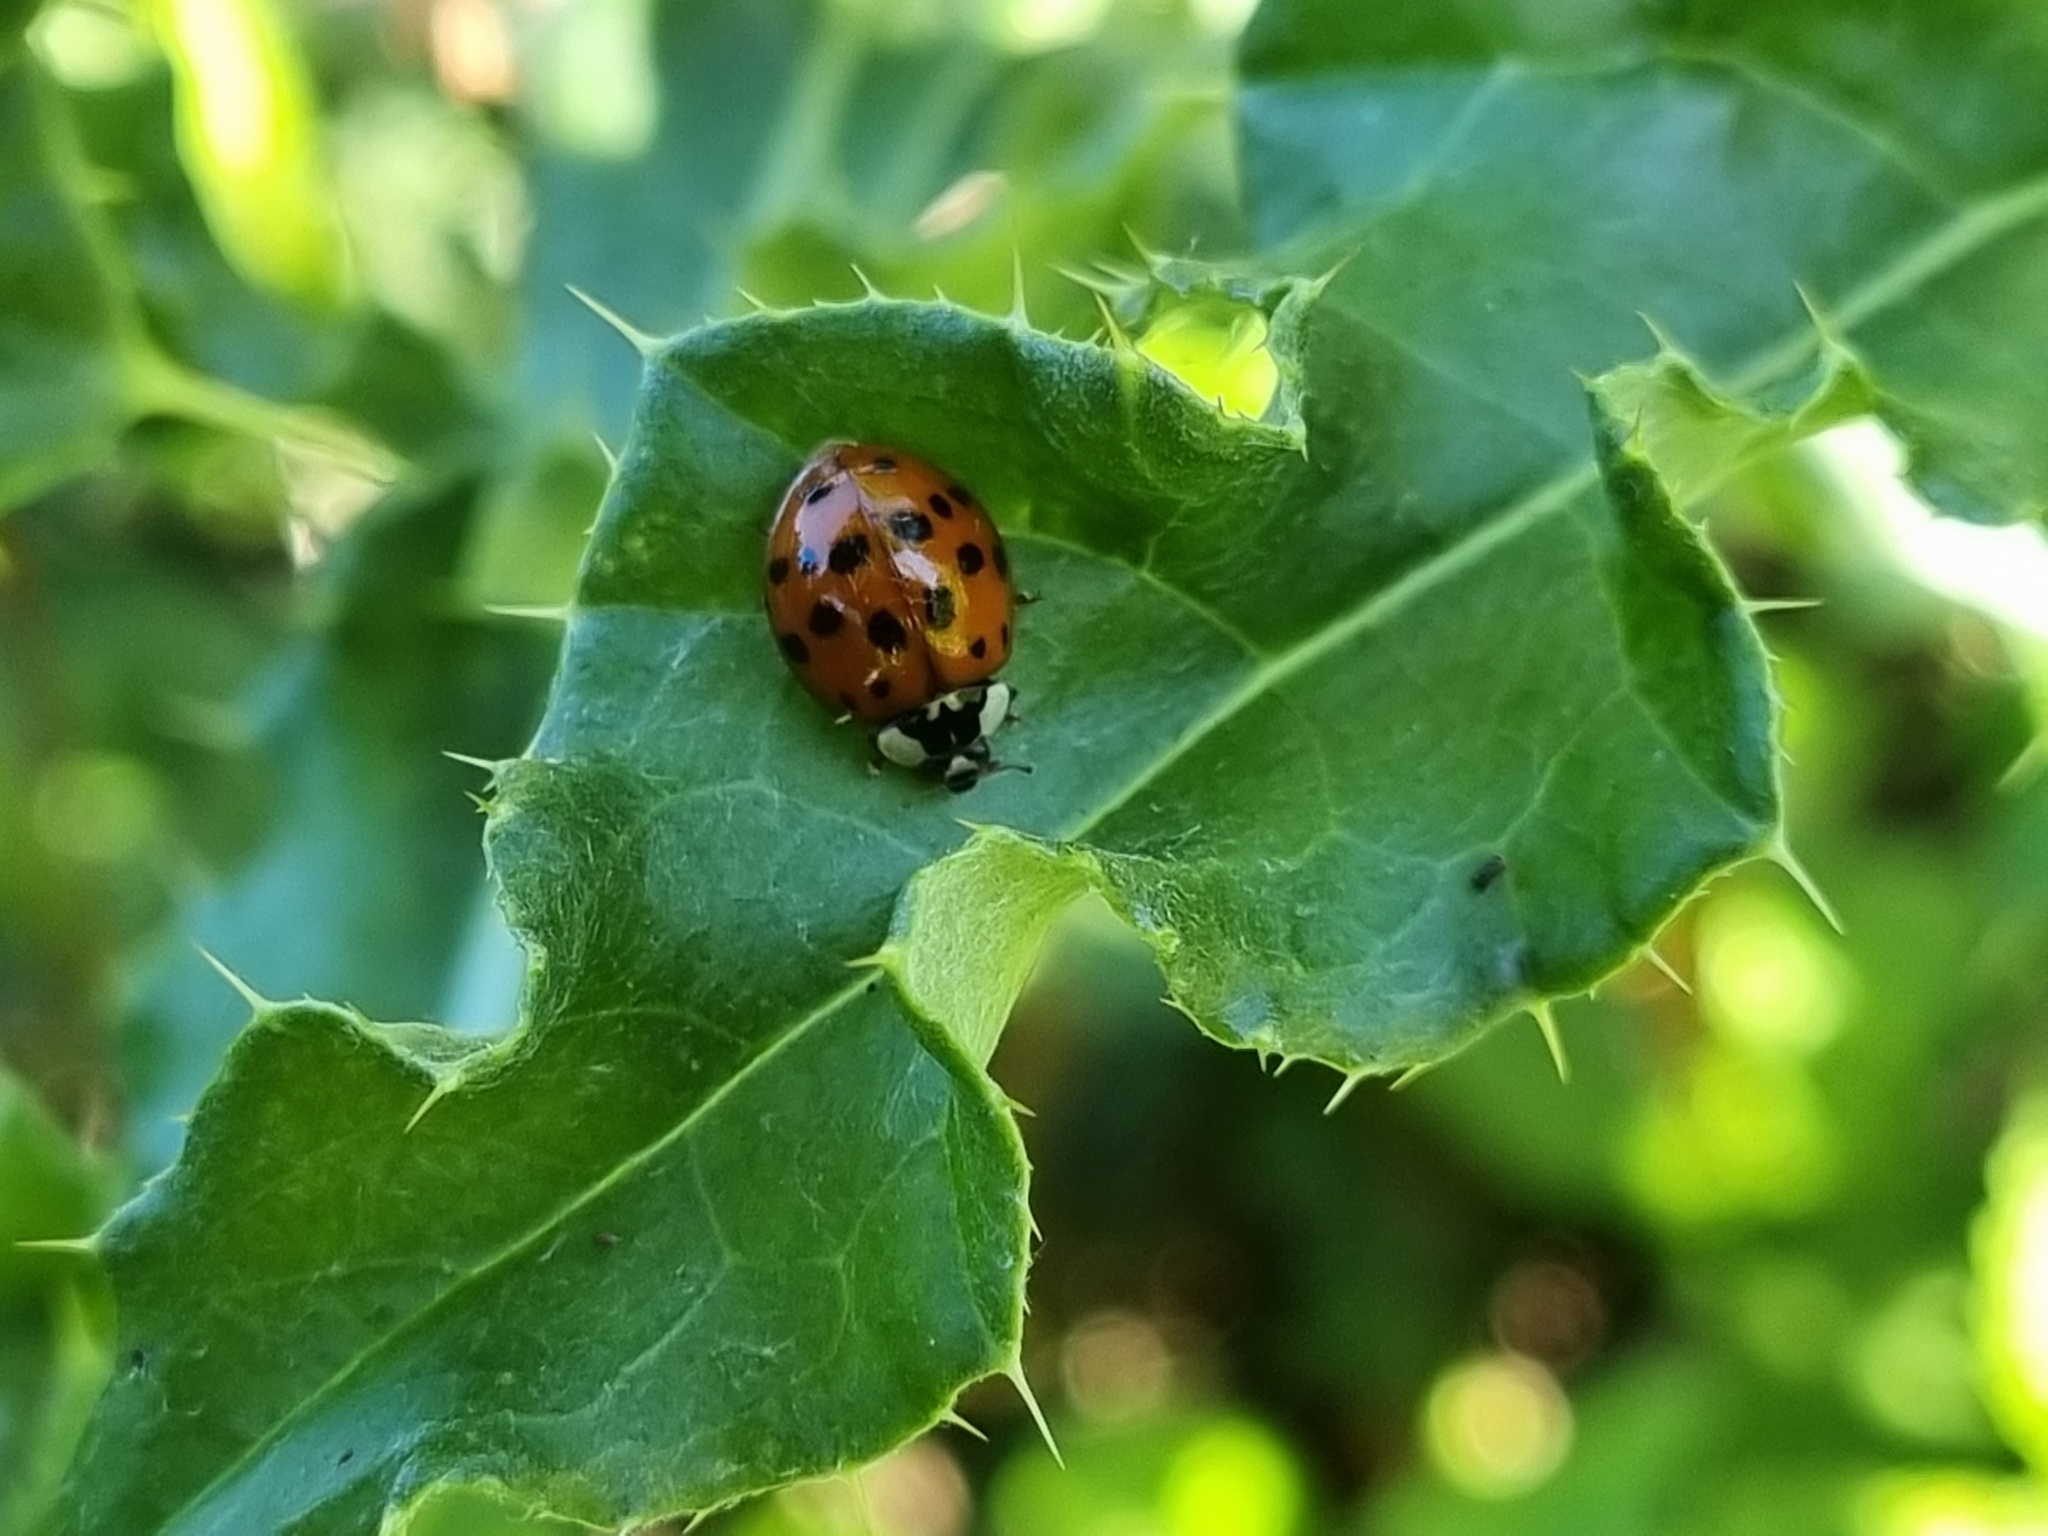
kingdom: Animalia
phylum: Arthropoda
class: Insecta
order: Coleoptera
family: Coccinellidae
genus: Harmonia
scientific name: Harmonia axyridis
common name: Harlequin ladybird
